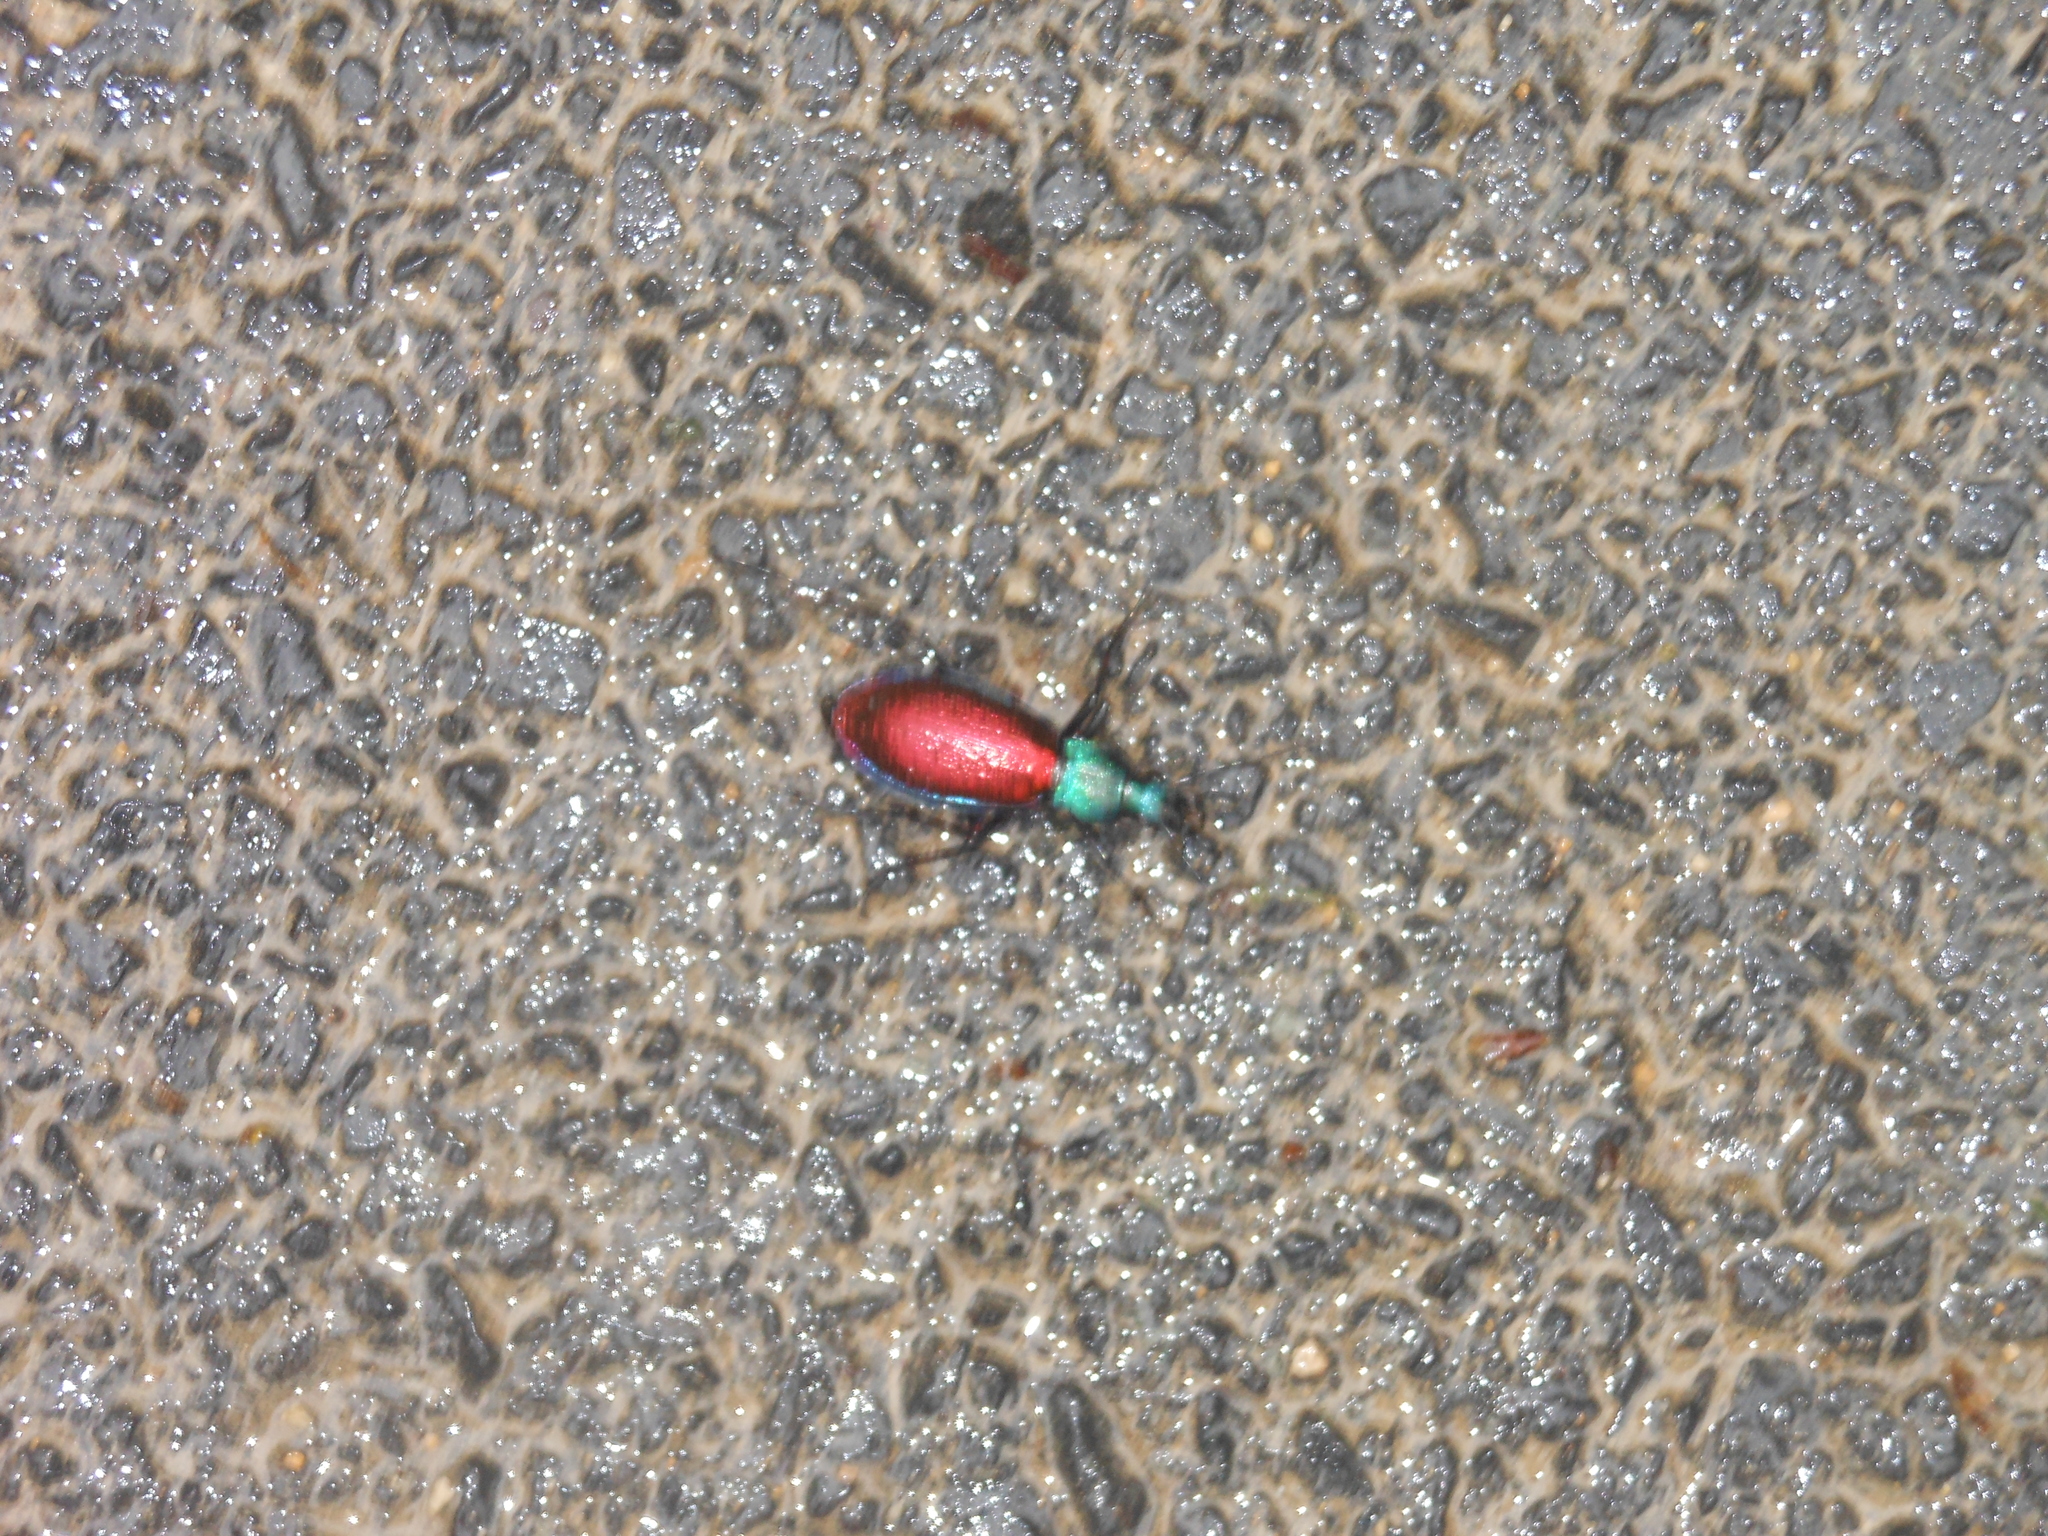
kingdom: Animalia
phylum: Arthropoda
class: Insecta
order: Coleoptera
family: Carabidae
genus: Carabus
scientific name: Carabus hispanus
